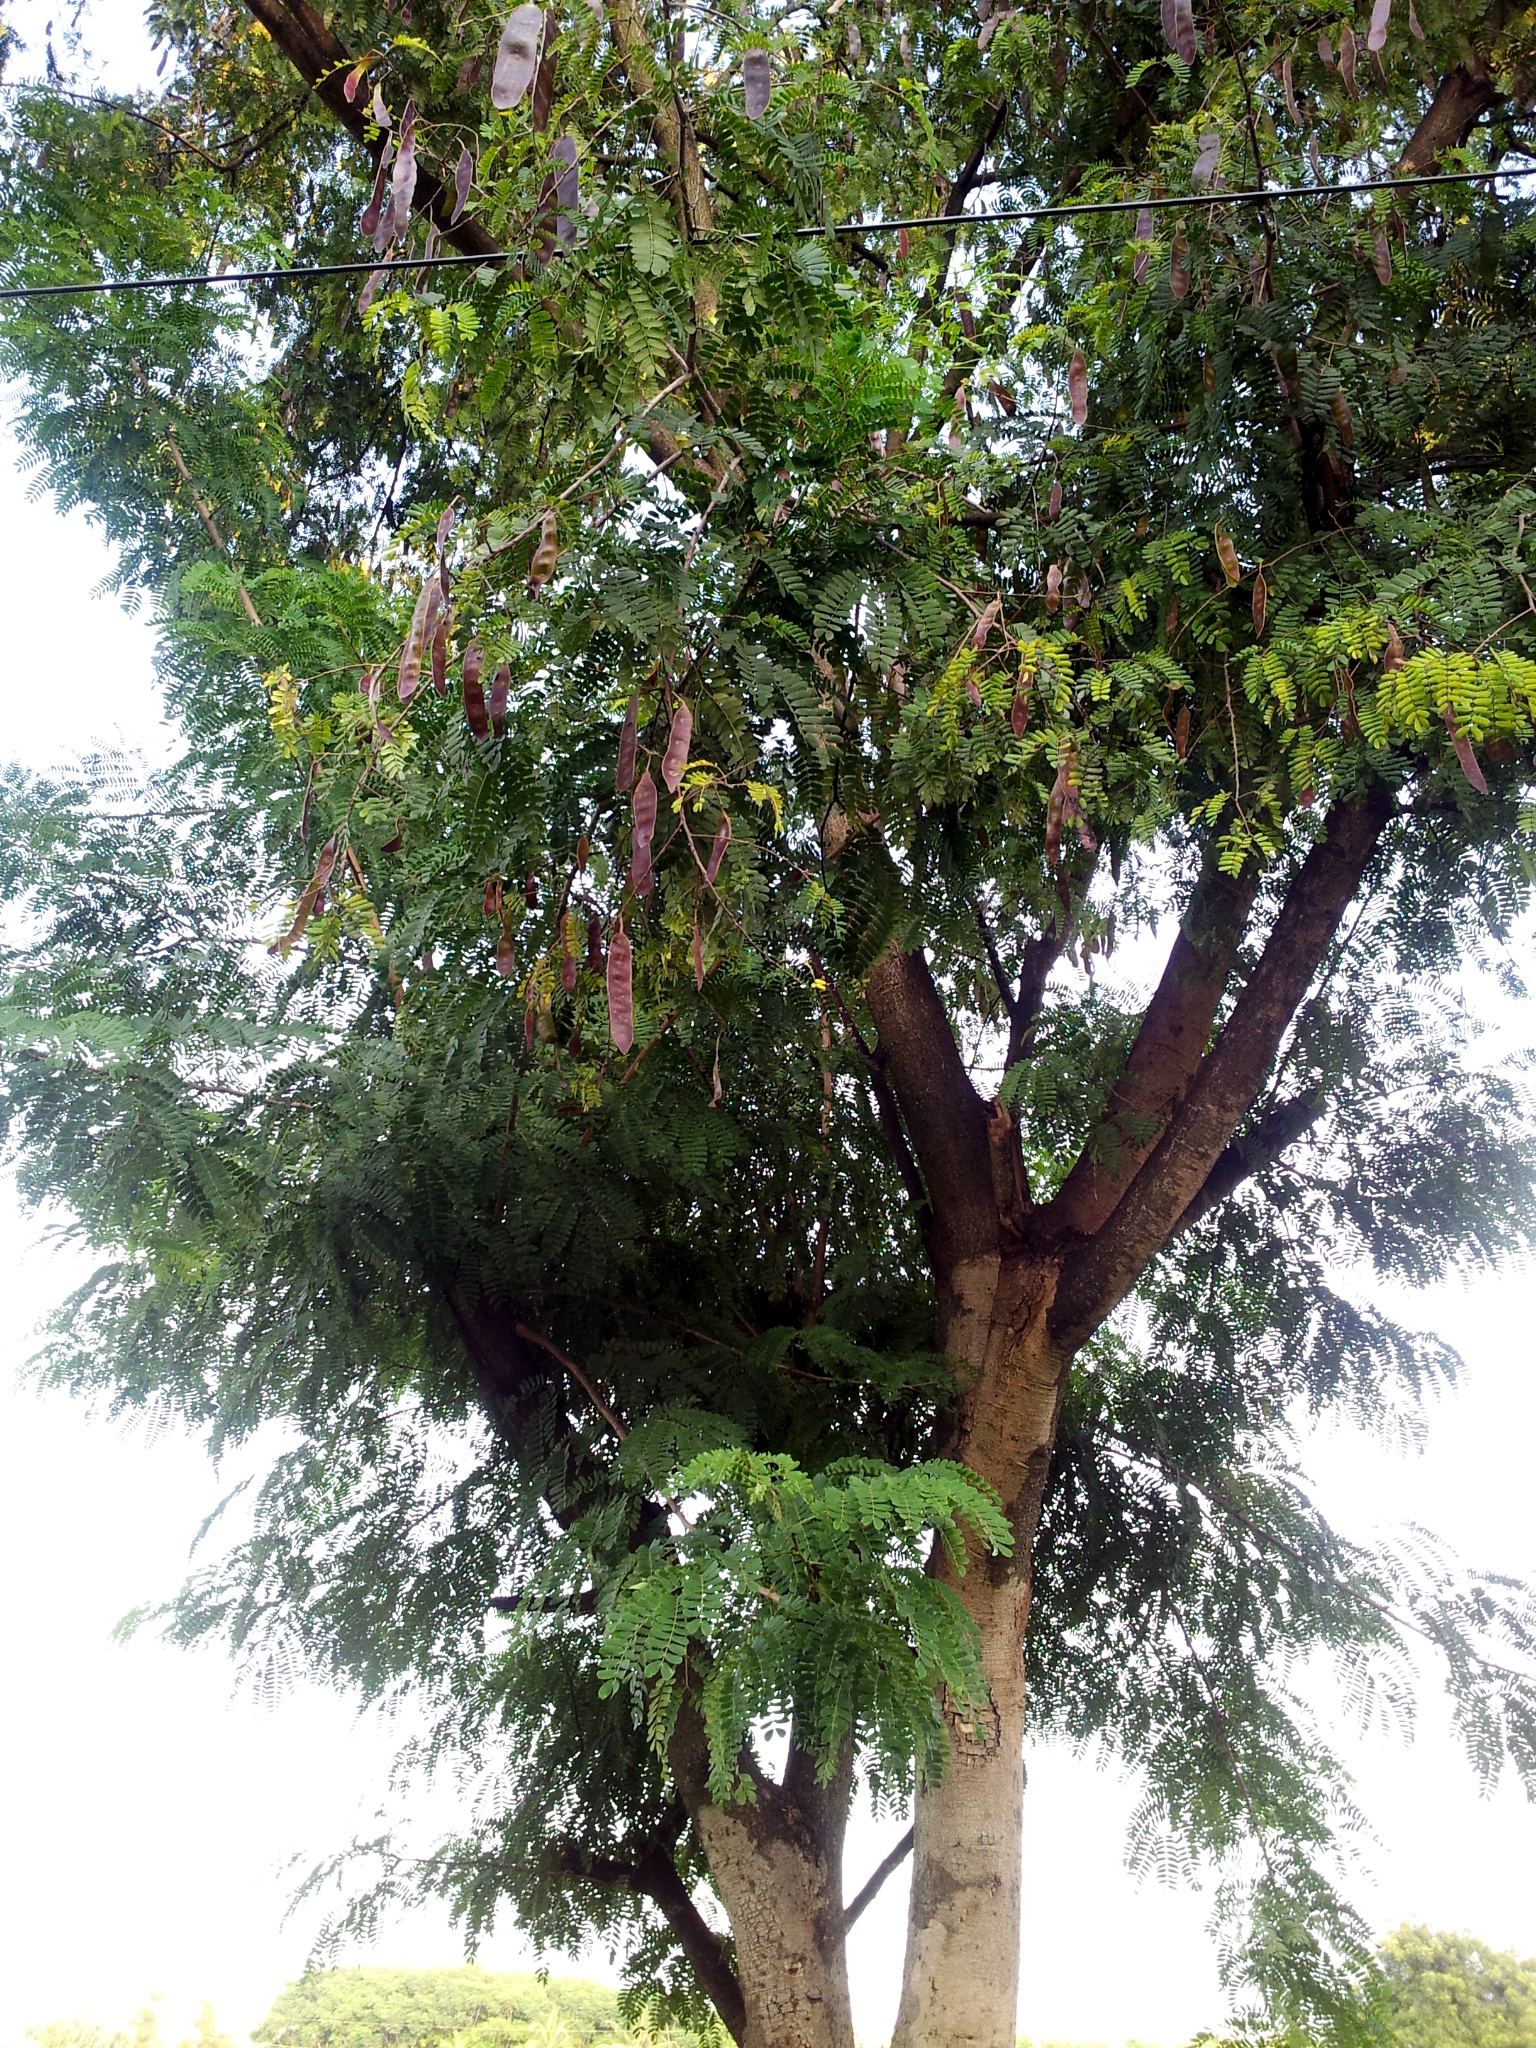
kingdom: Plantae
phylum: Tracheophyta
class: Magnoliopsida
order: Fabales
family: Fabaceae
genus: Albizia
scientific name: Albizia odoratissima
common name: Ceylon rosewood
